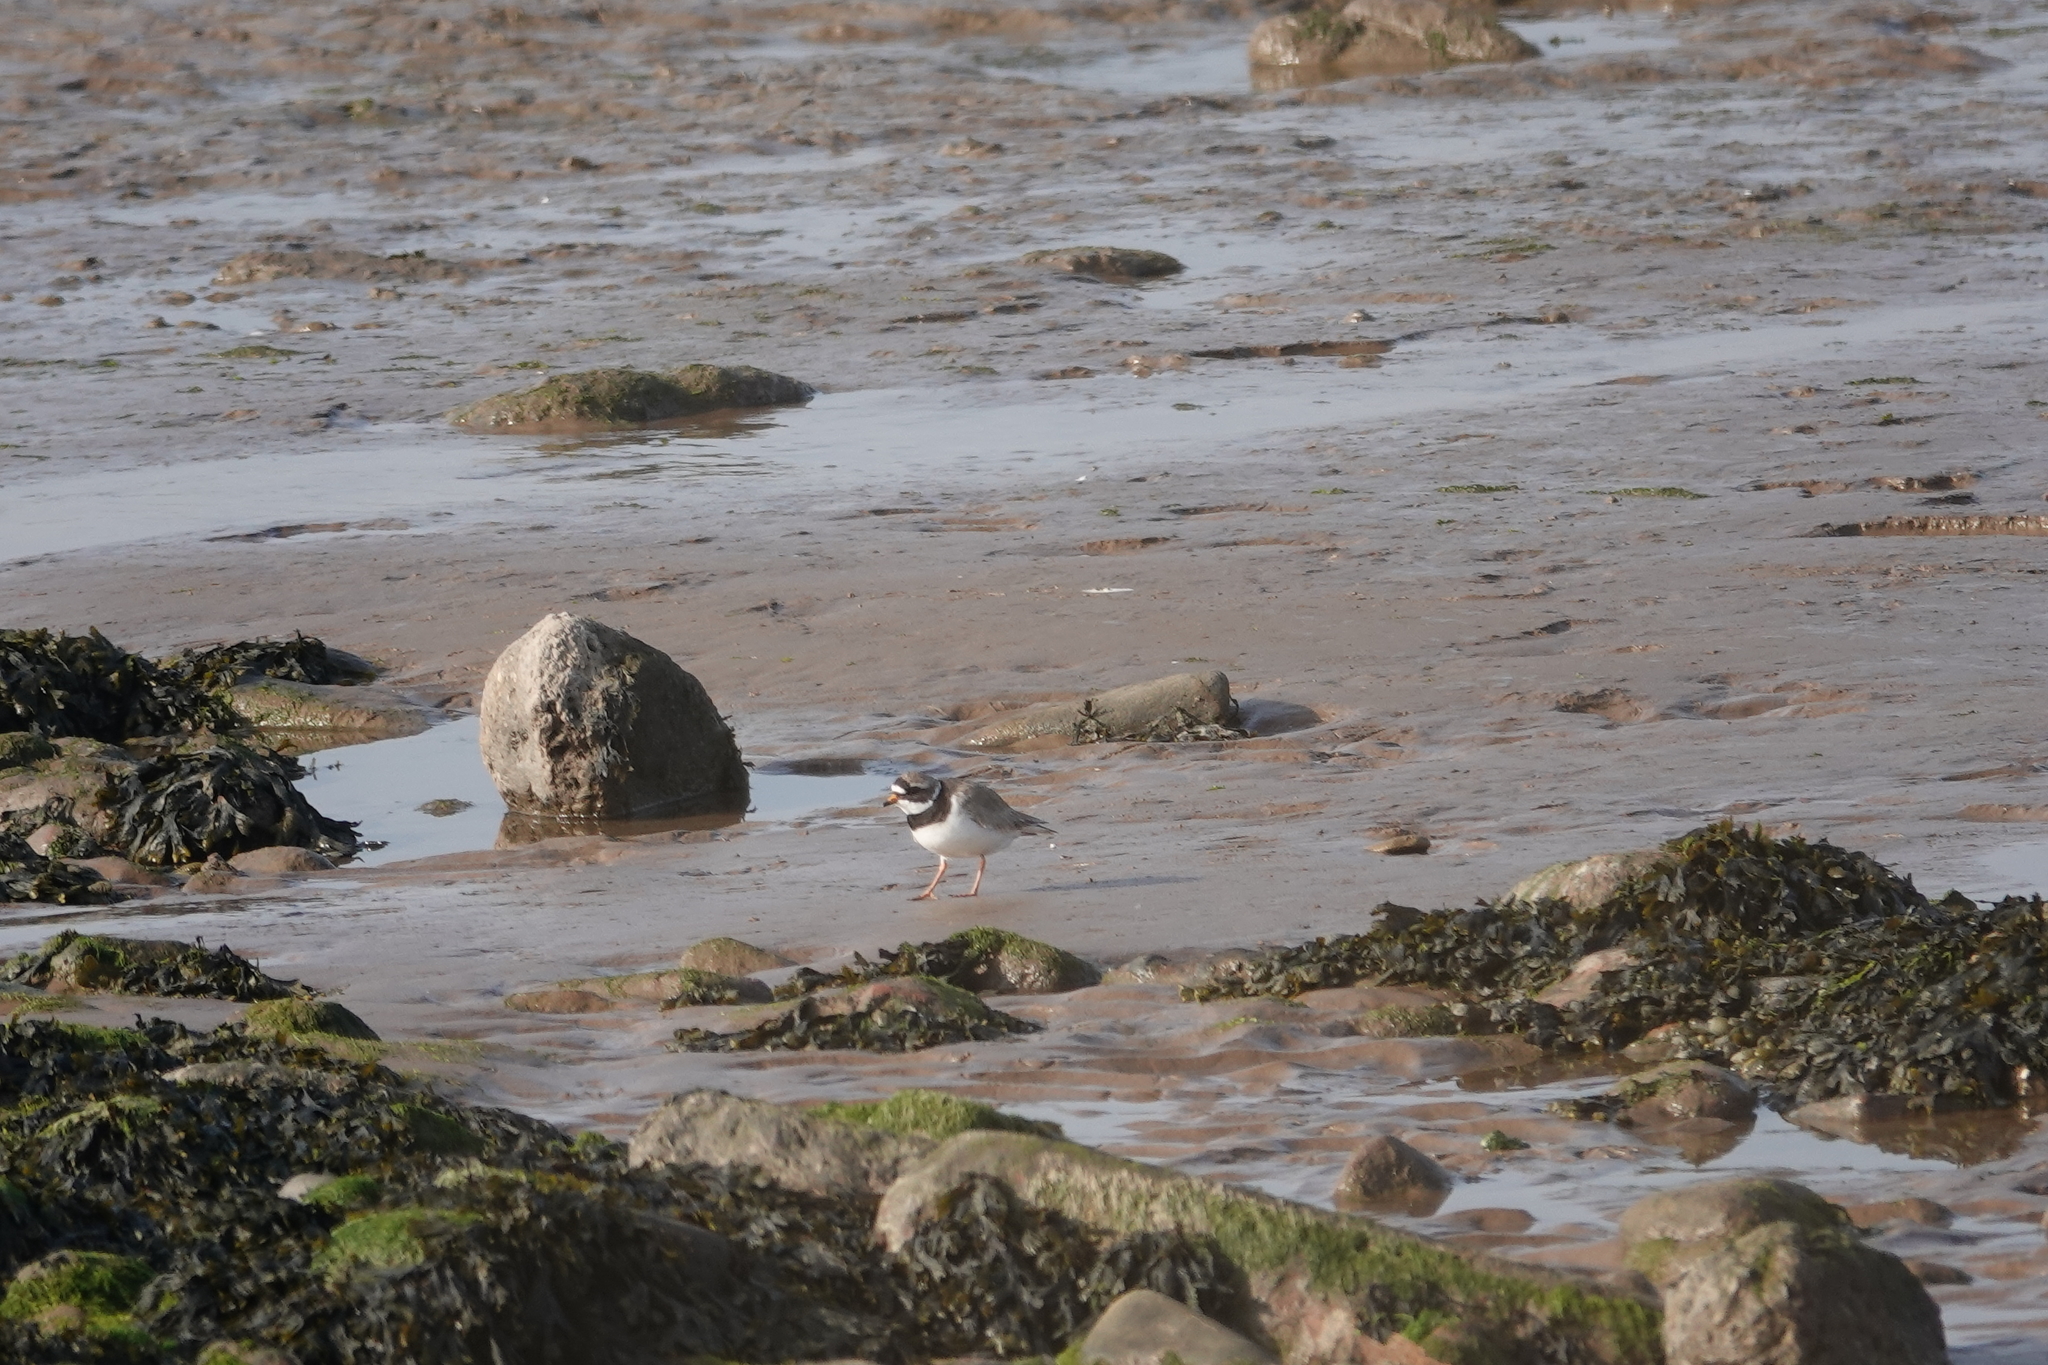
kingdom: Animalia
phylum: Chordata
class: Aves
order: Charadriiformes
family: Charadriidae
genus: Charadrius
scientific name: Charadrius hiaticula
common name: Common ringed plover
